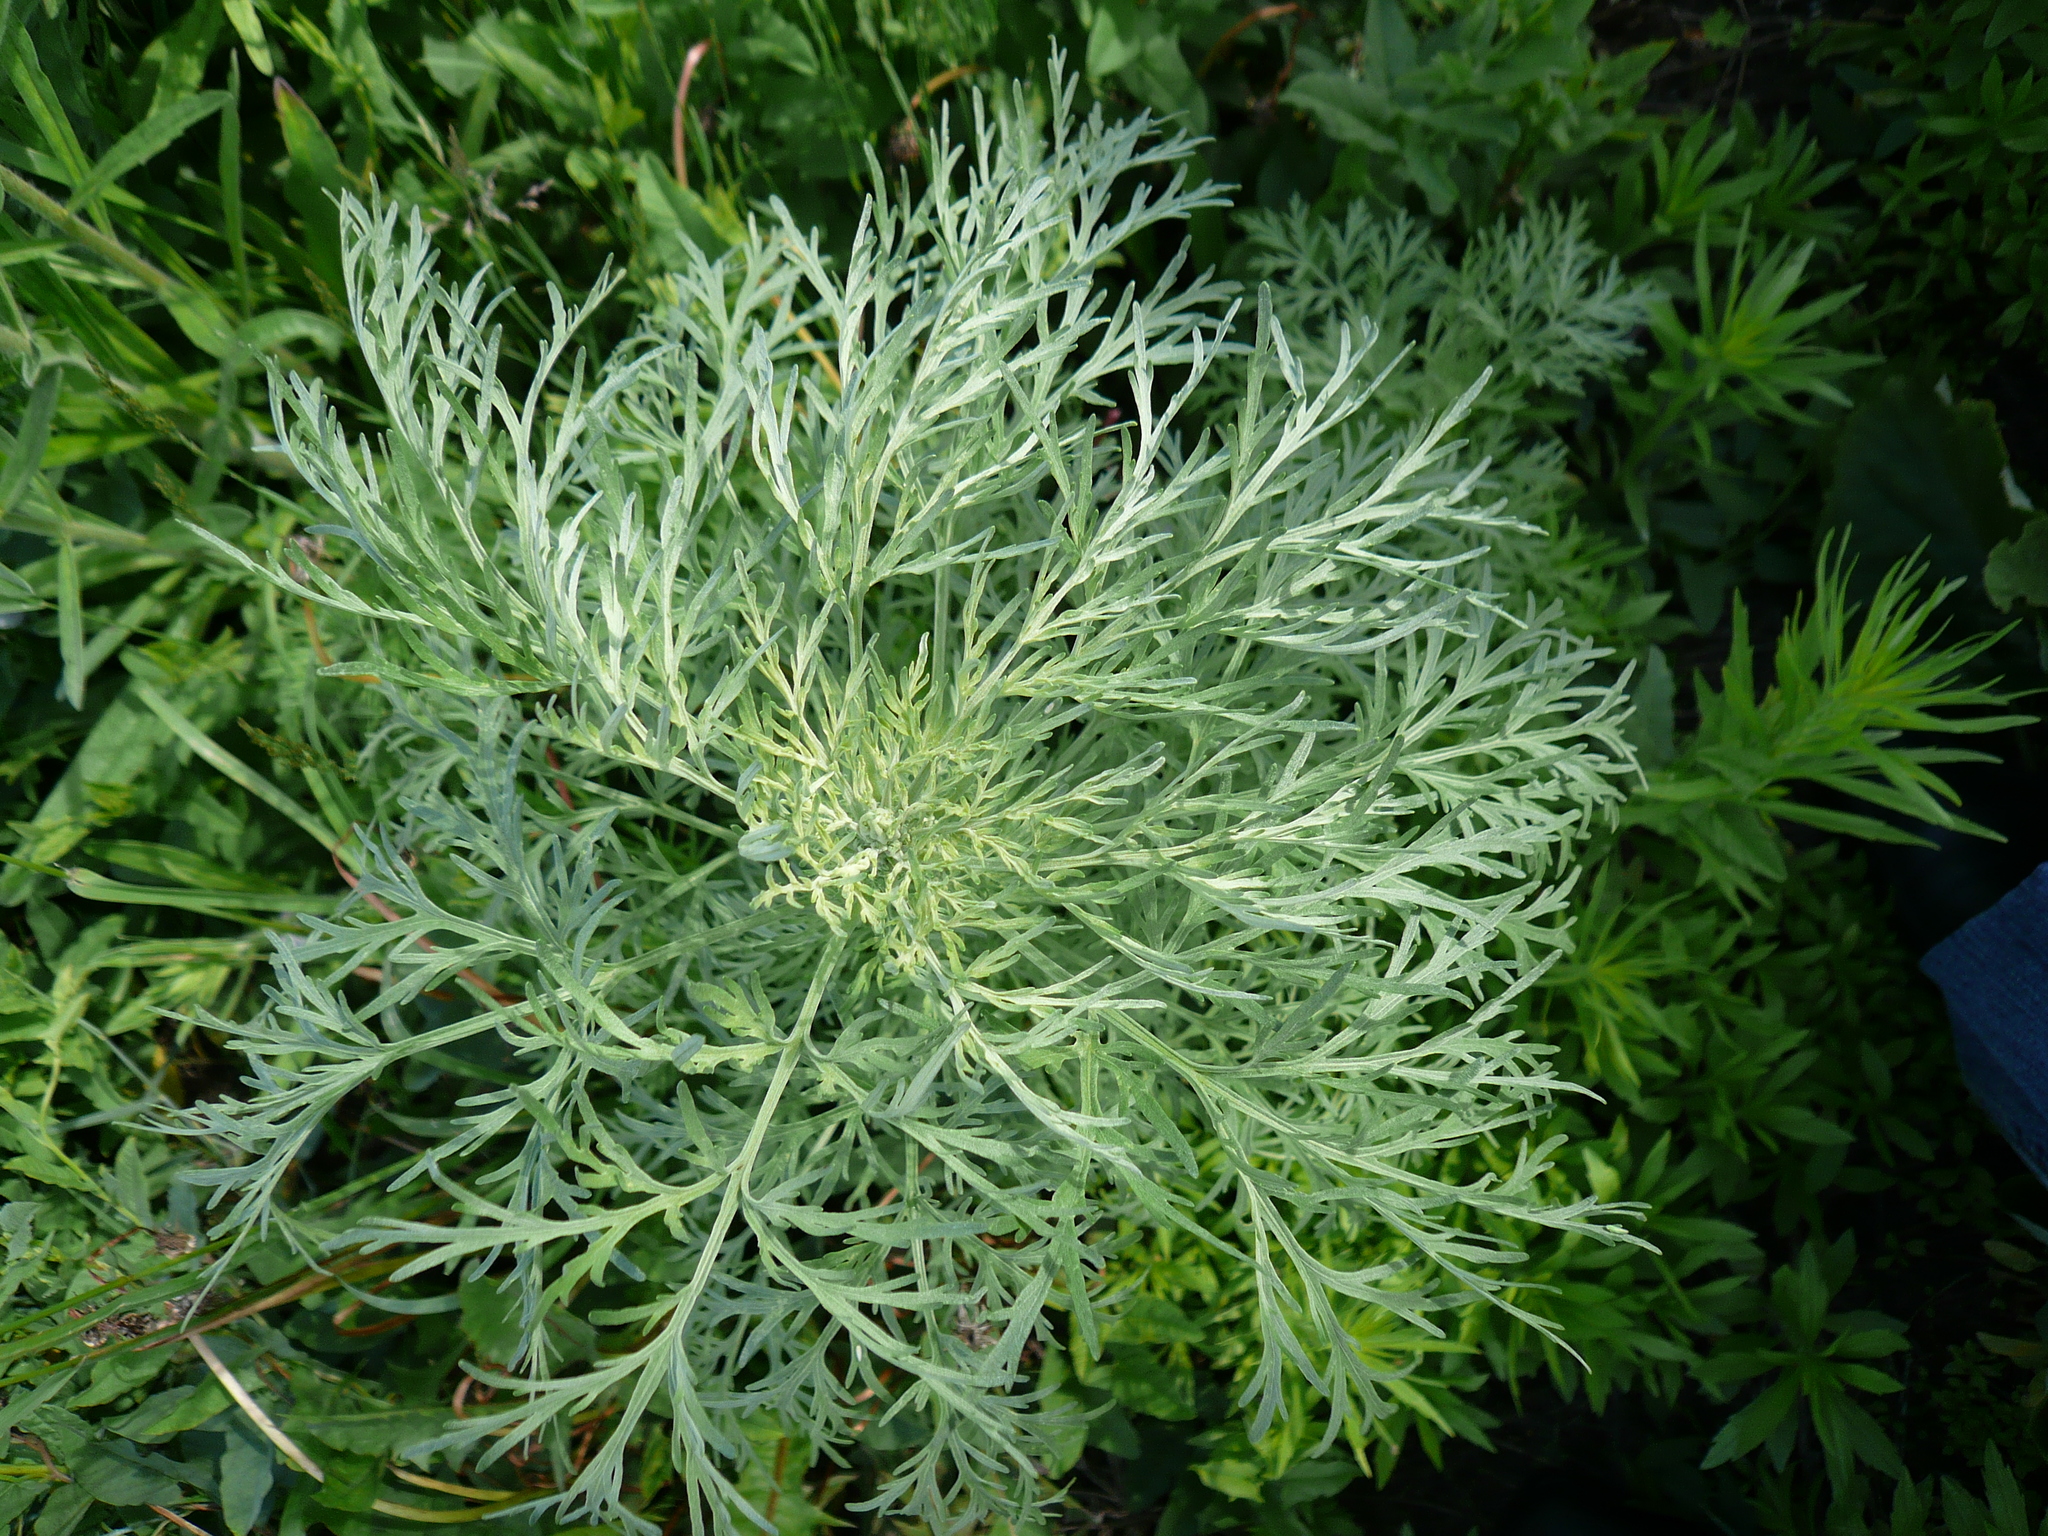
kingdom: Plantae
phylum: Tracheophyta
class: Magnoliopsida
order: Asterales
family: Asteraceae
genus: Artemisia
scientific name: Artemisia sieversiana
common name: Sieversian wormwood
